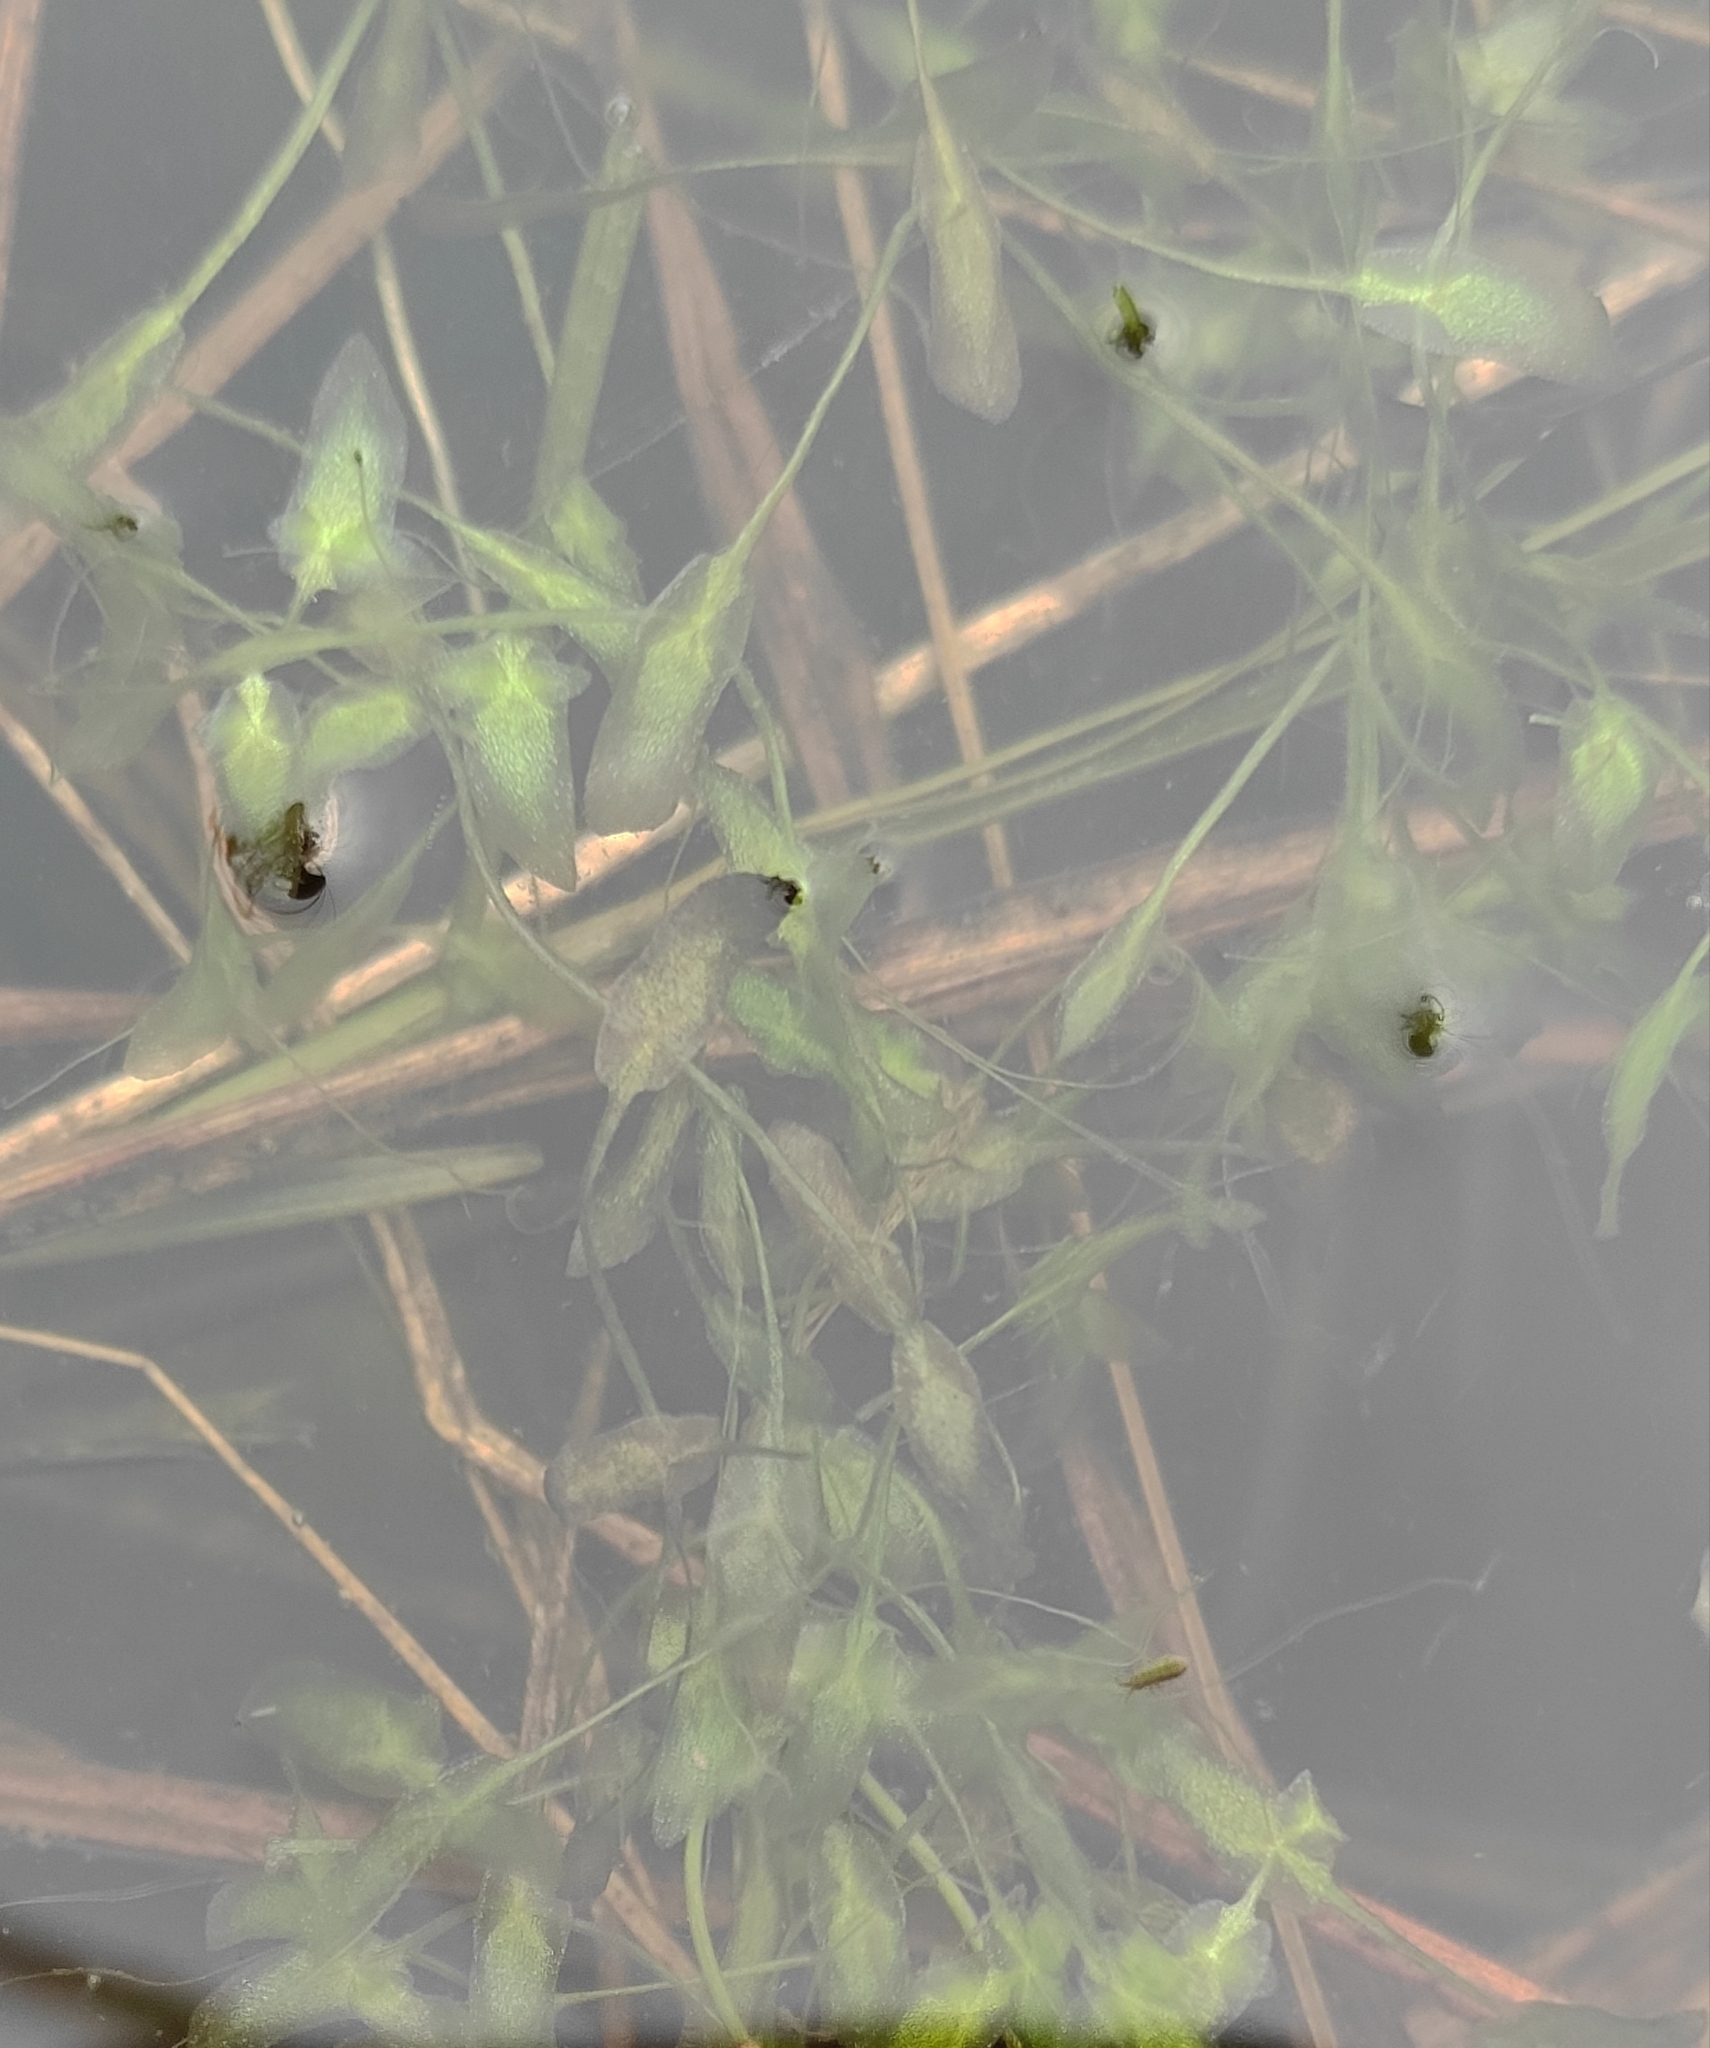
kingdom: Plantae
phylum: Tracheophyta
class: Liliopsida
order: Alismatales
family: Araceae
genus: Lemna
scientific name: Lemna trisulca
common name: Ivy-leaved duckweed
